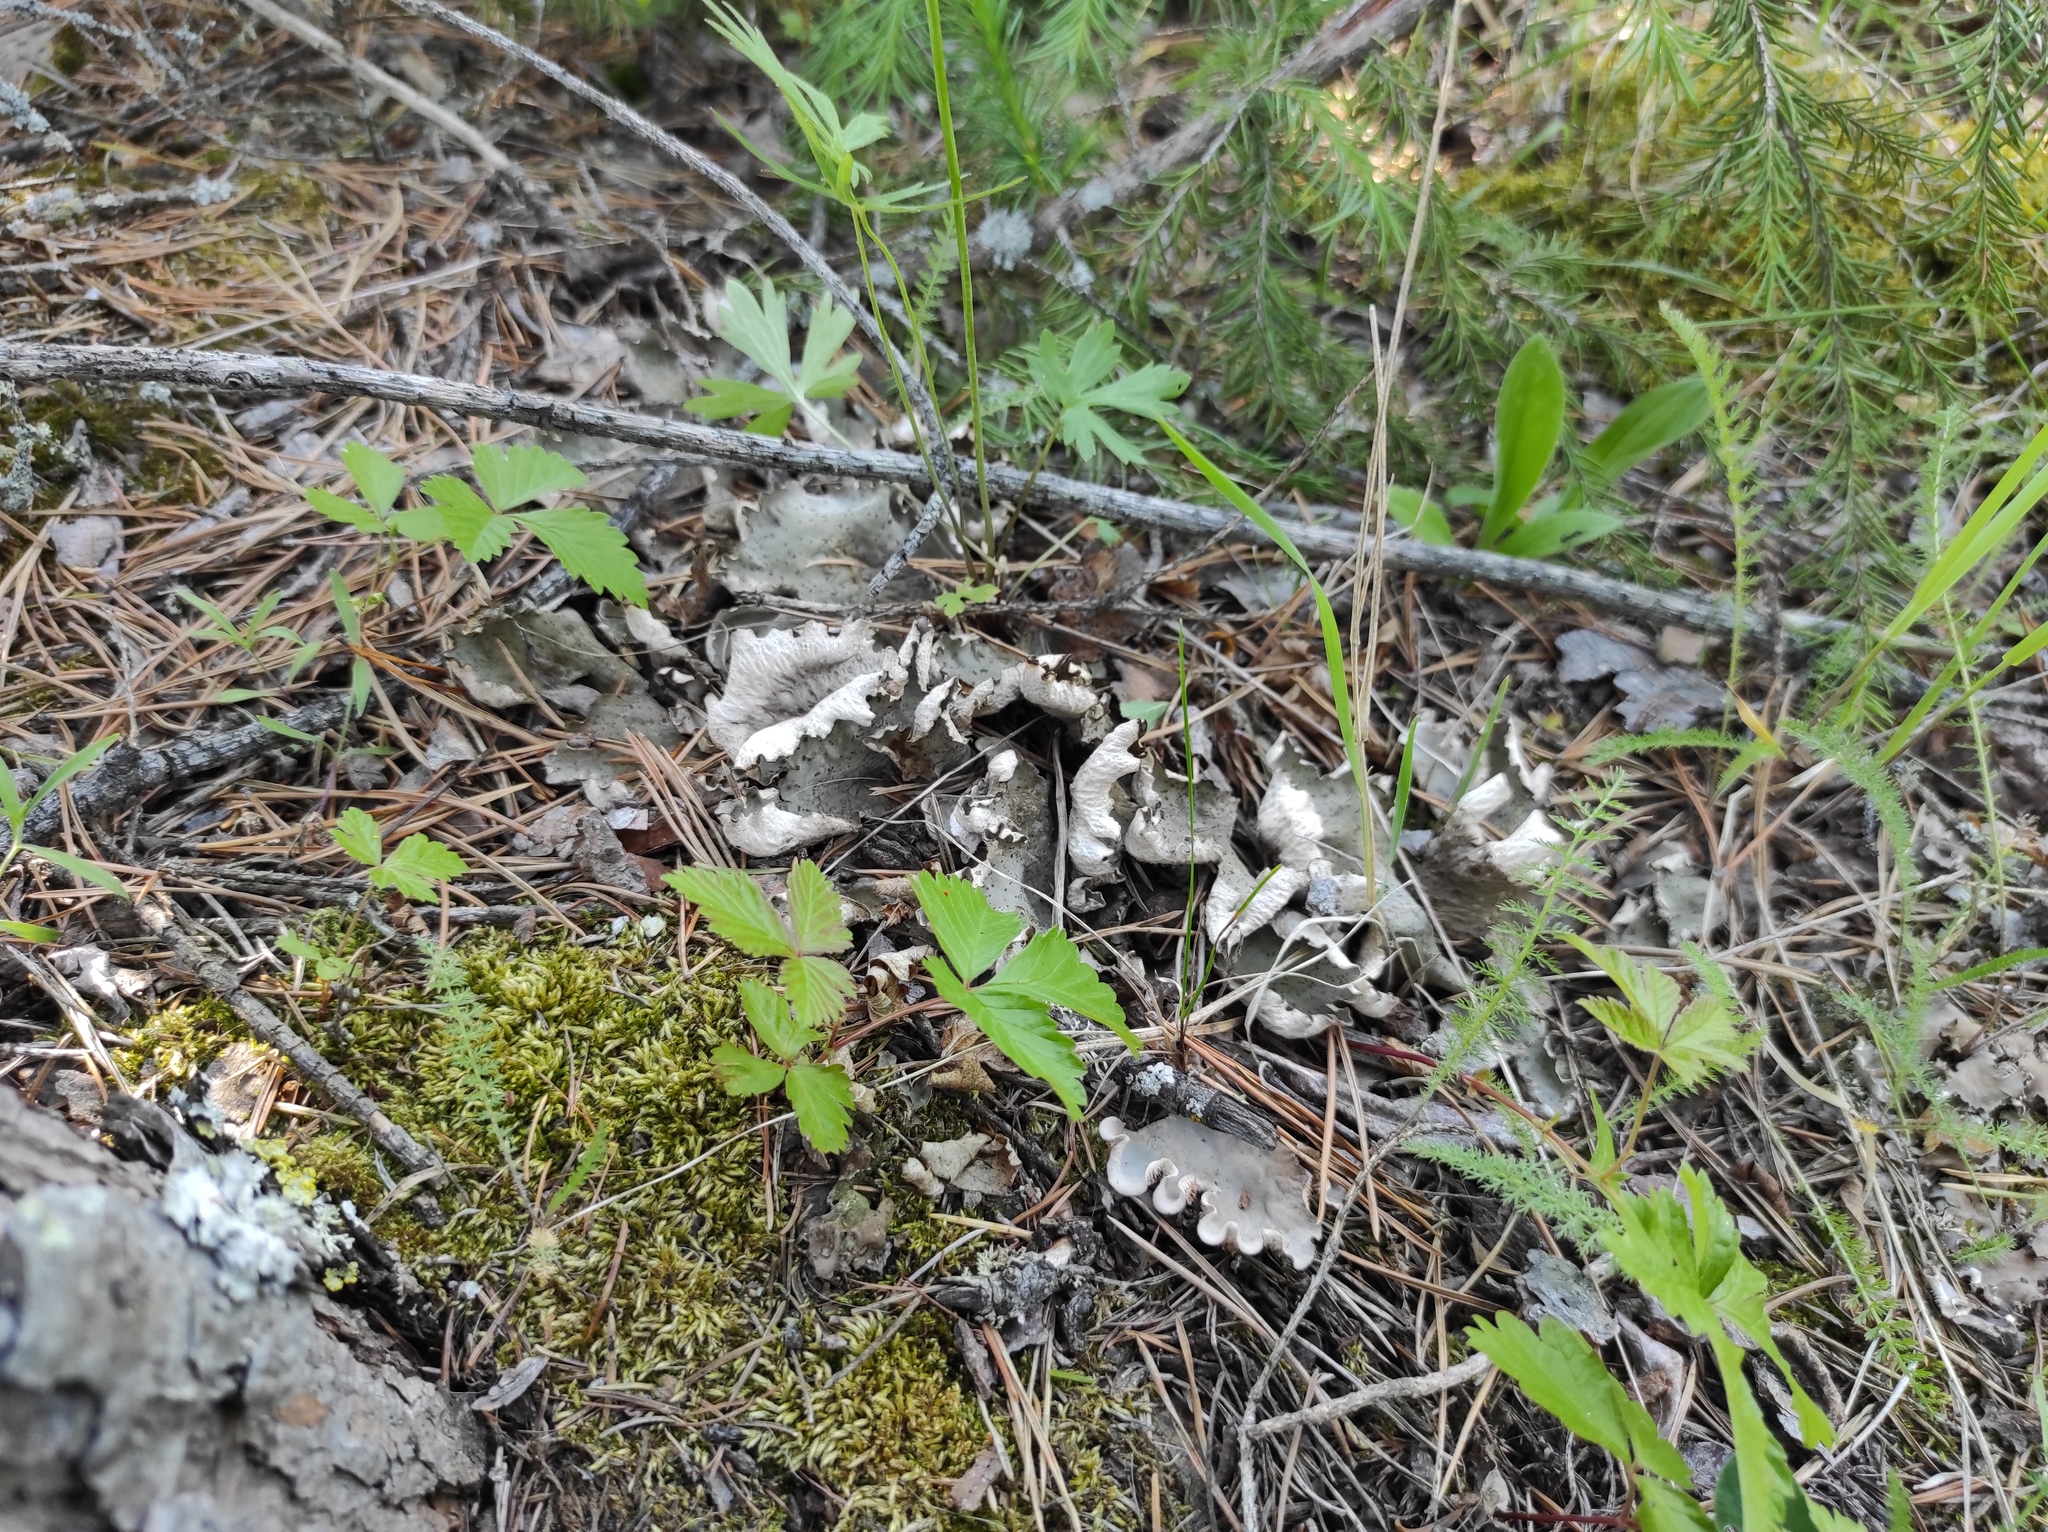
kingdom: Plantae
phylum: Tracheophyta
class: Magnoliopsida
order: Rosales
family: Rosaceae
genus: Rubus
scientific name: Rubus arcticus
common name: Arctic bramble
